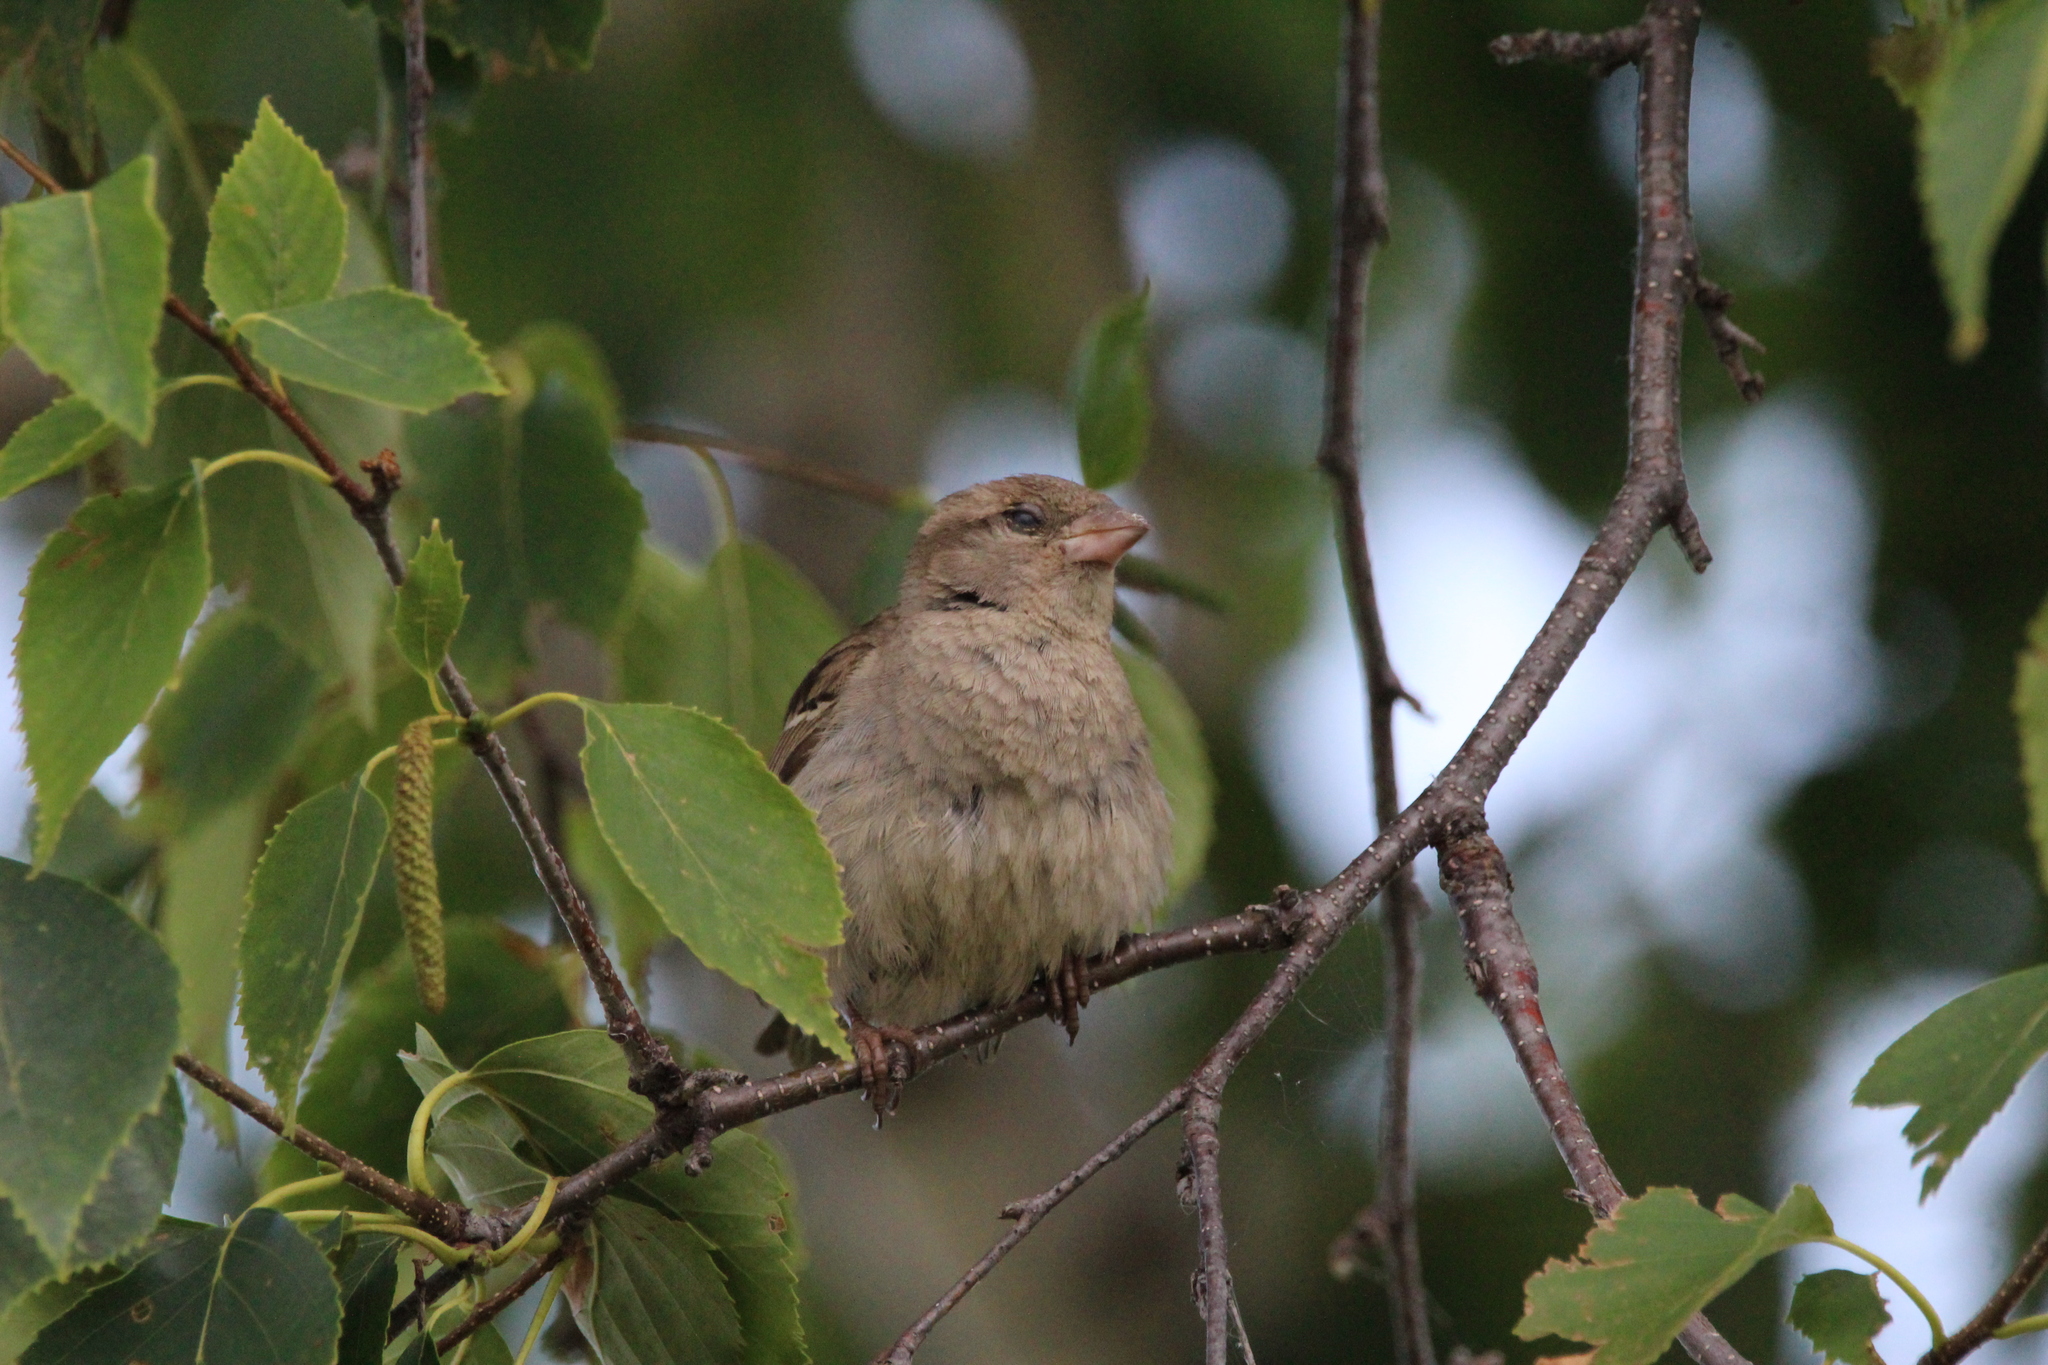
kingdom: Animalia
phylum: Chordata
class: Aves
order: Passeriformes
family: Passeridae
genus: Passer
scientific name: Passer domesticus
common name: House sparrow
